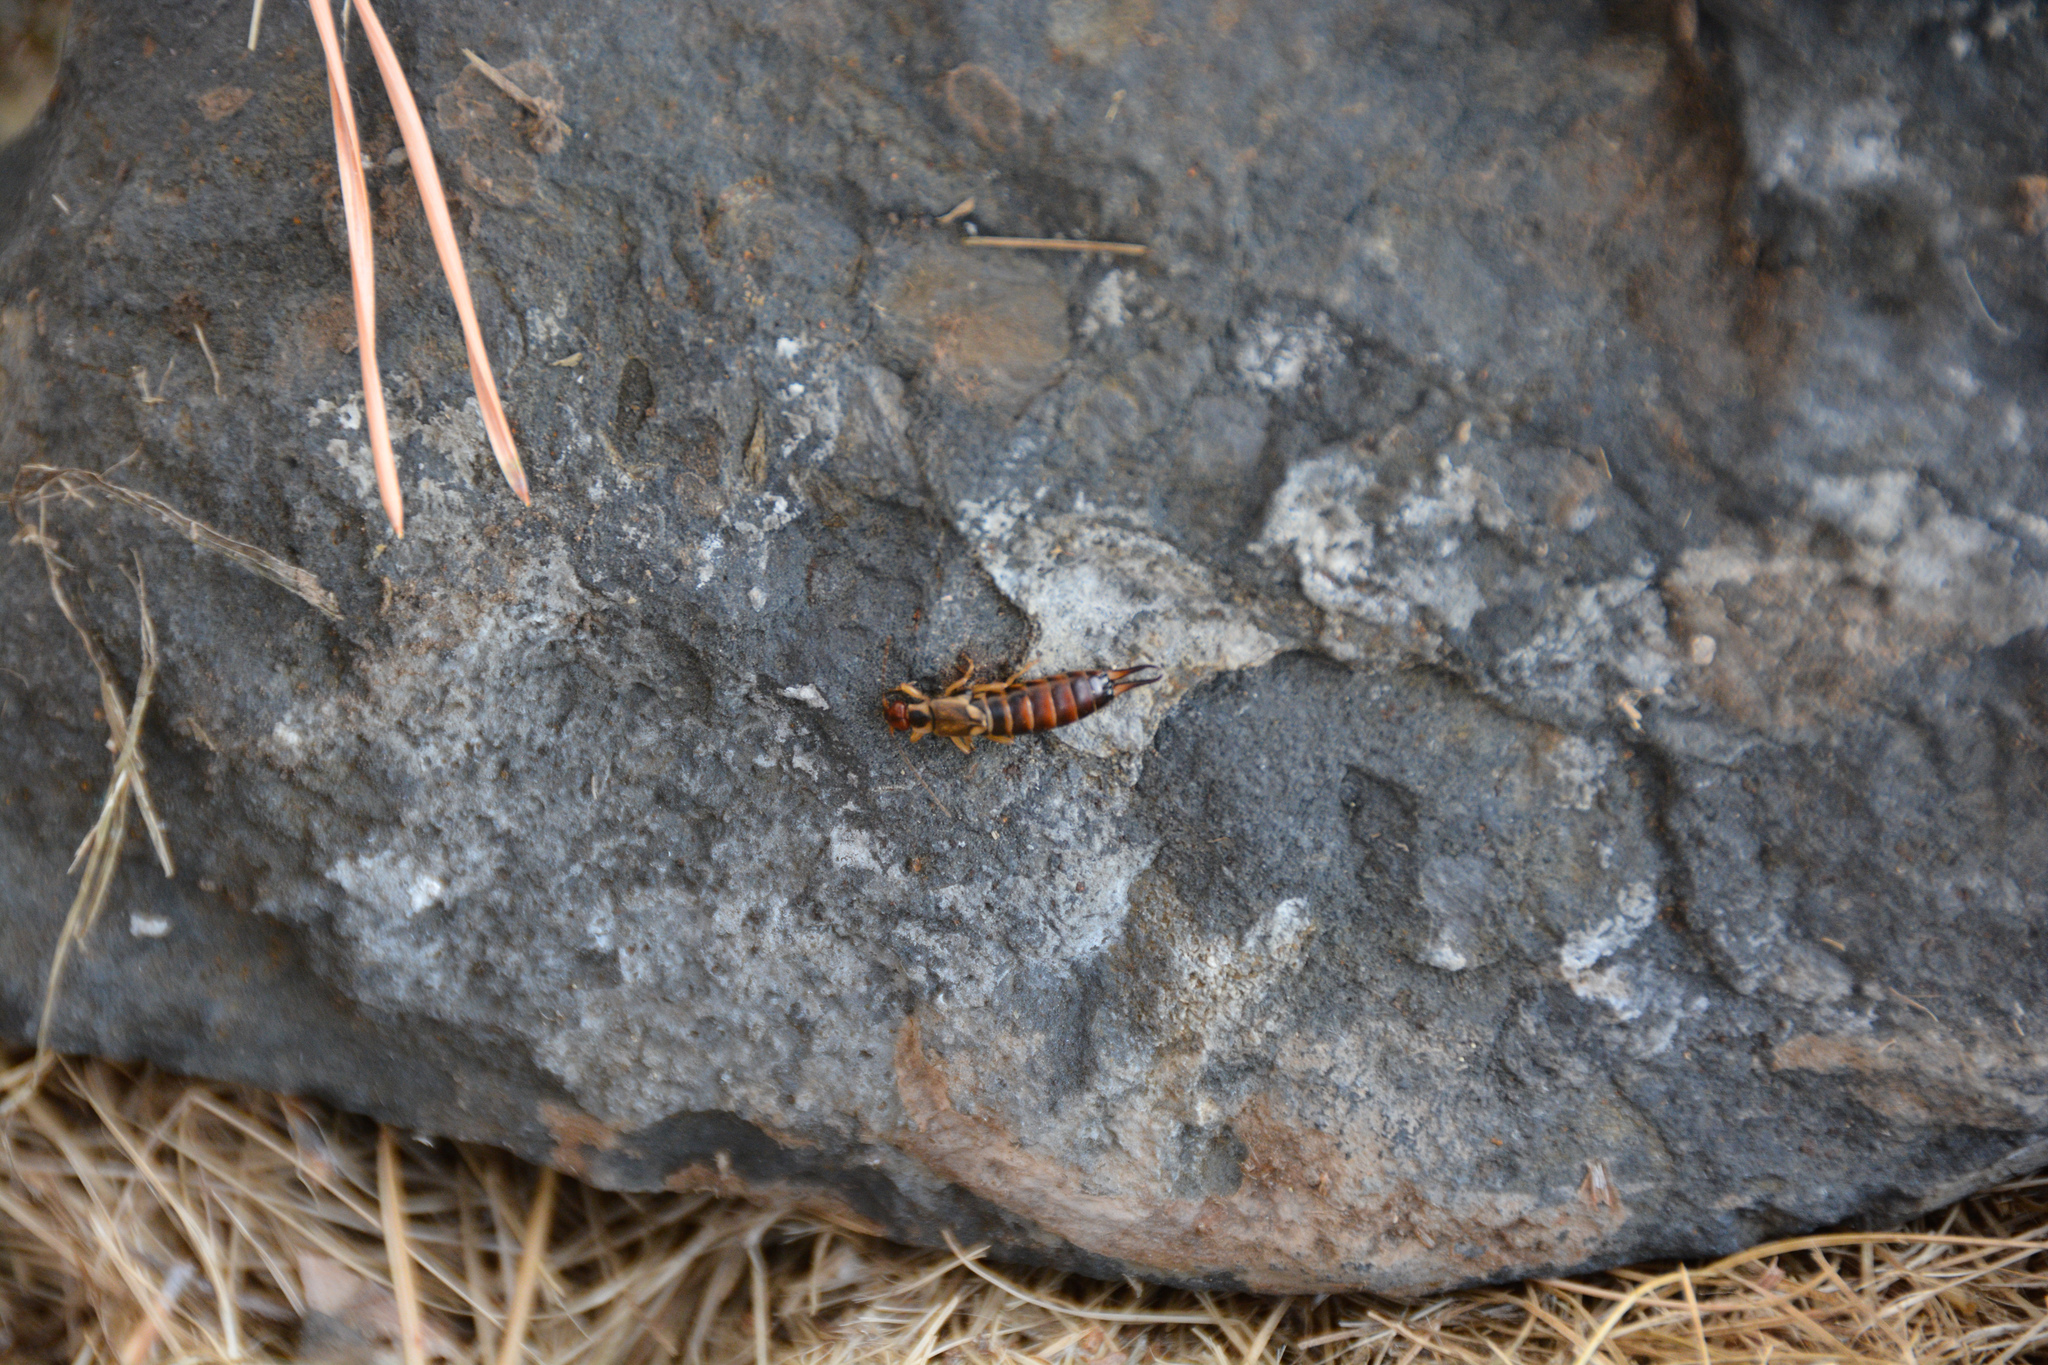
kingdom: Animalia
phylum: Arthropoda
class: Insecta
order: Dermaptera
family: Forficulidae
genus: Forficula
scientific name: Forficula
